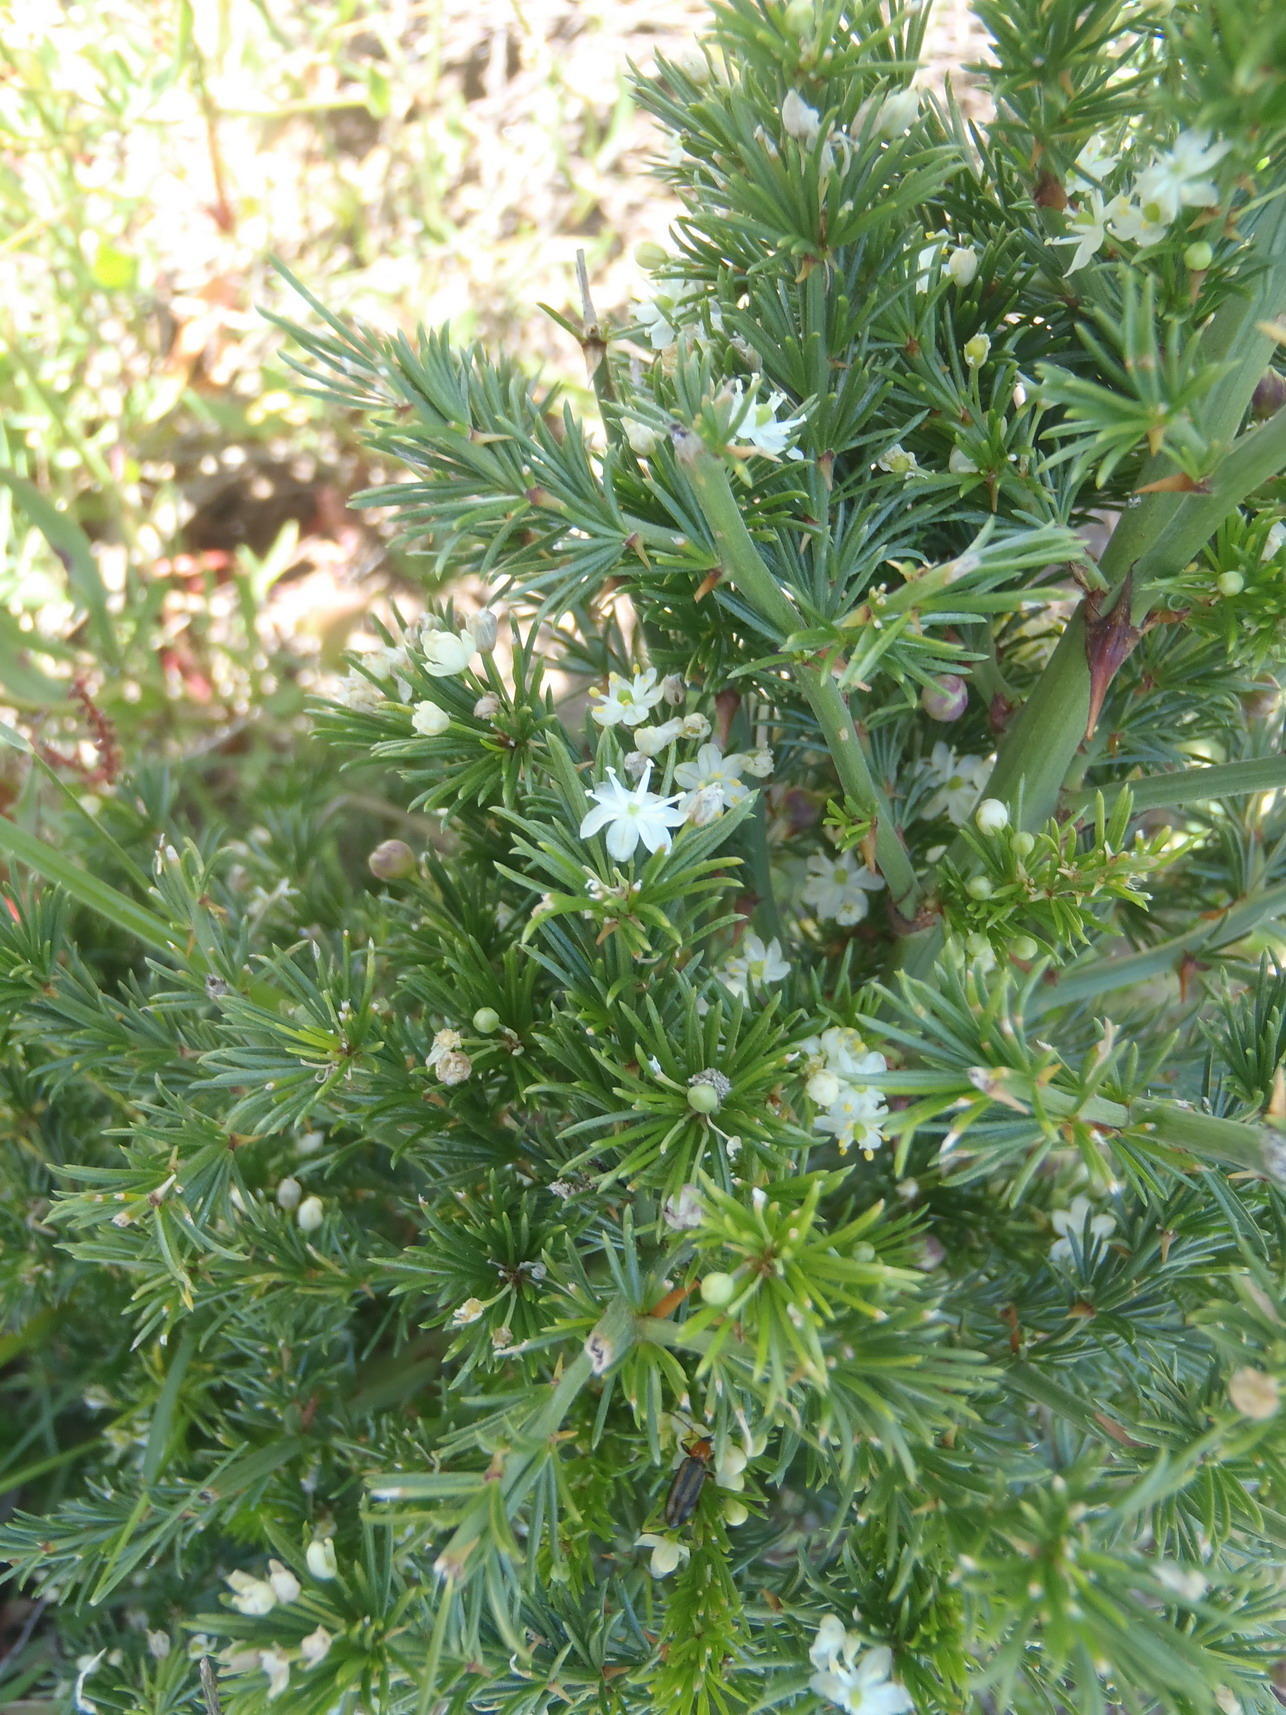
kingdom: Plantae
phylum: Tracheophyta
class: Liliopsida
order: Asparagales
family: Asparagaceae
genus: Asparagus
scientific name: Asparagus africanus
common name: Asparagus-fern
